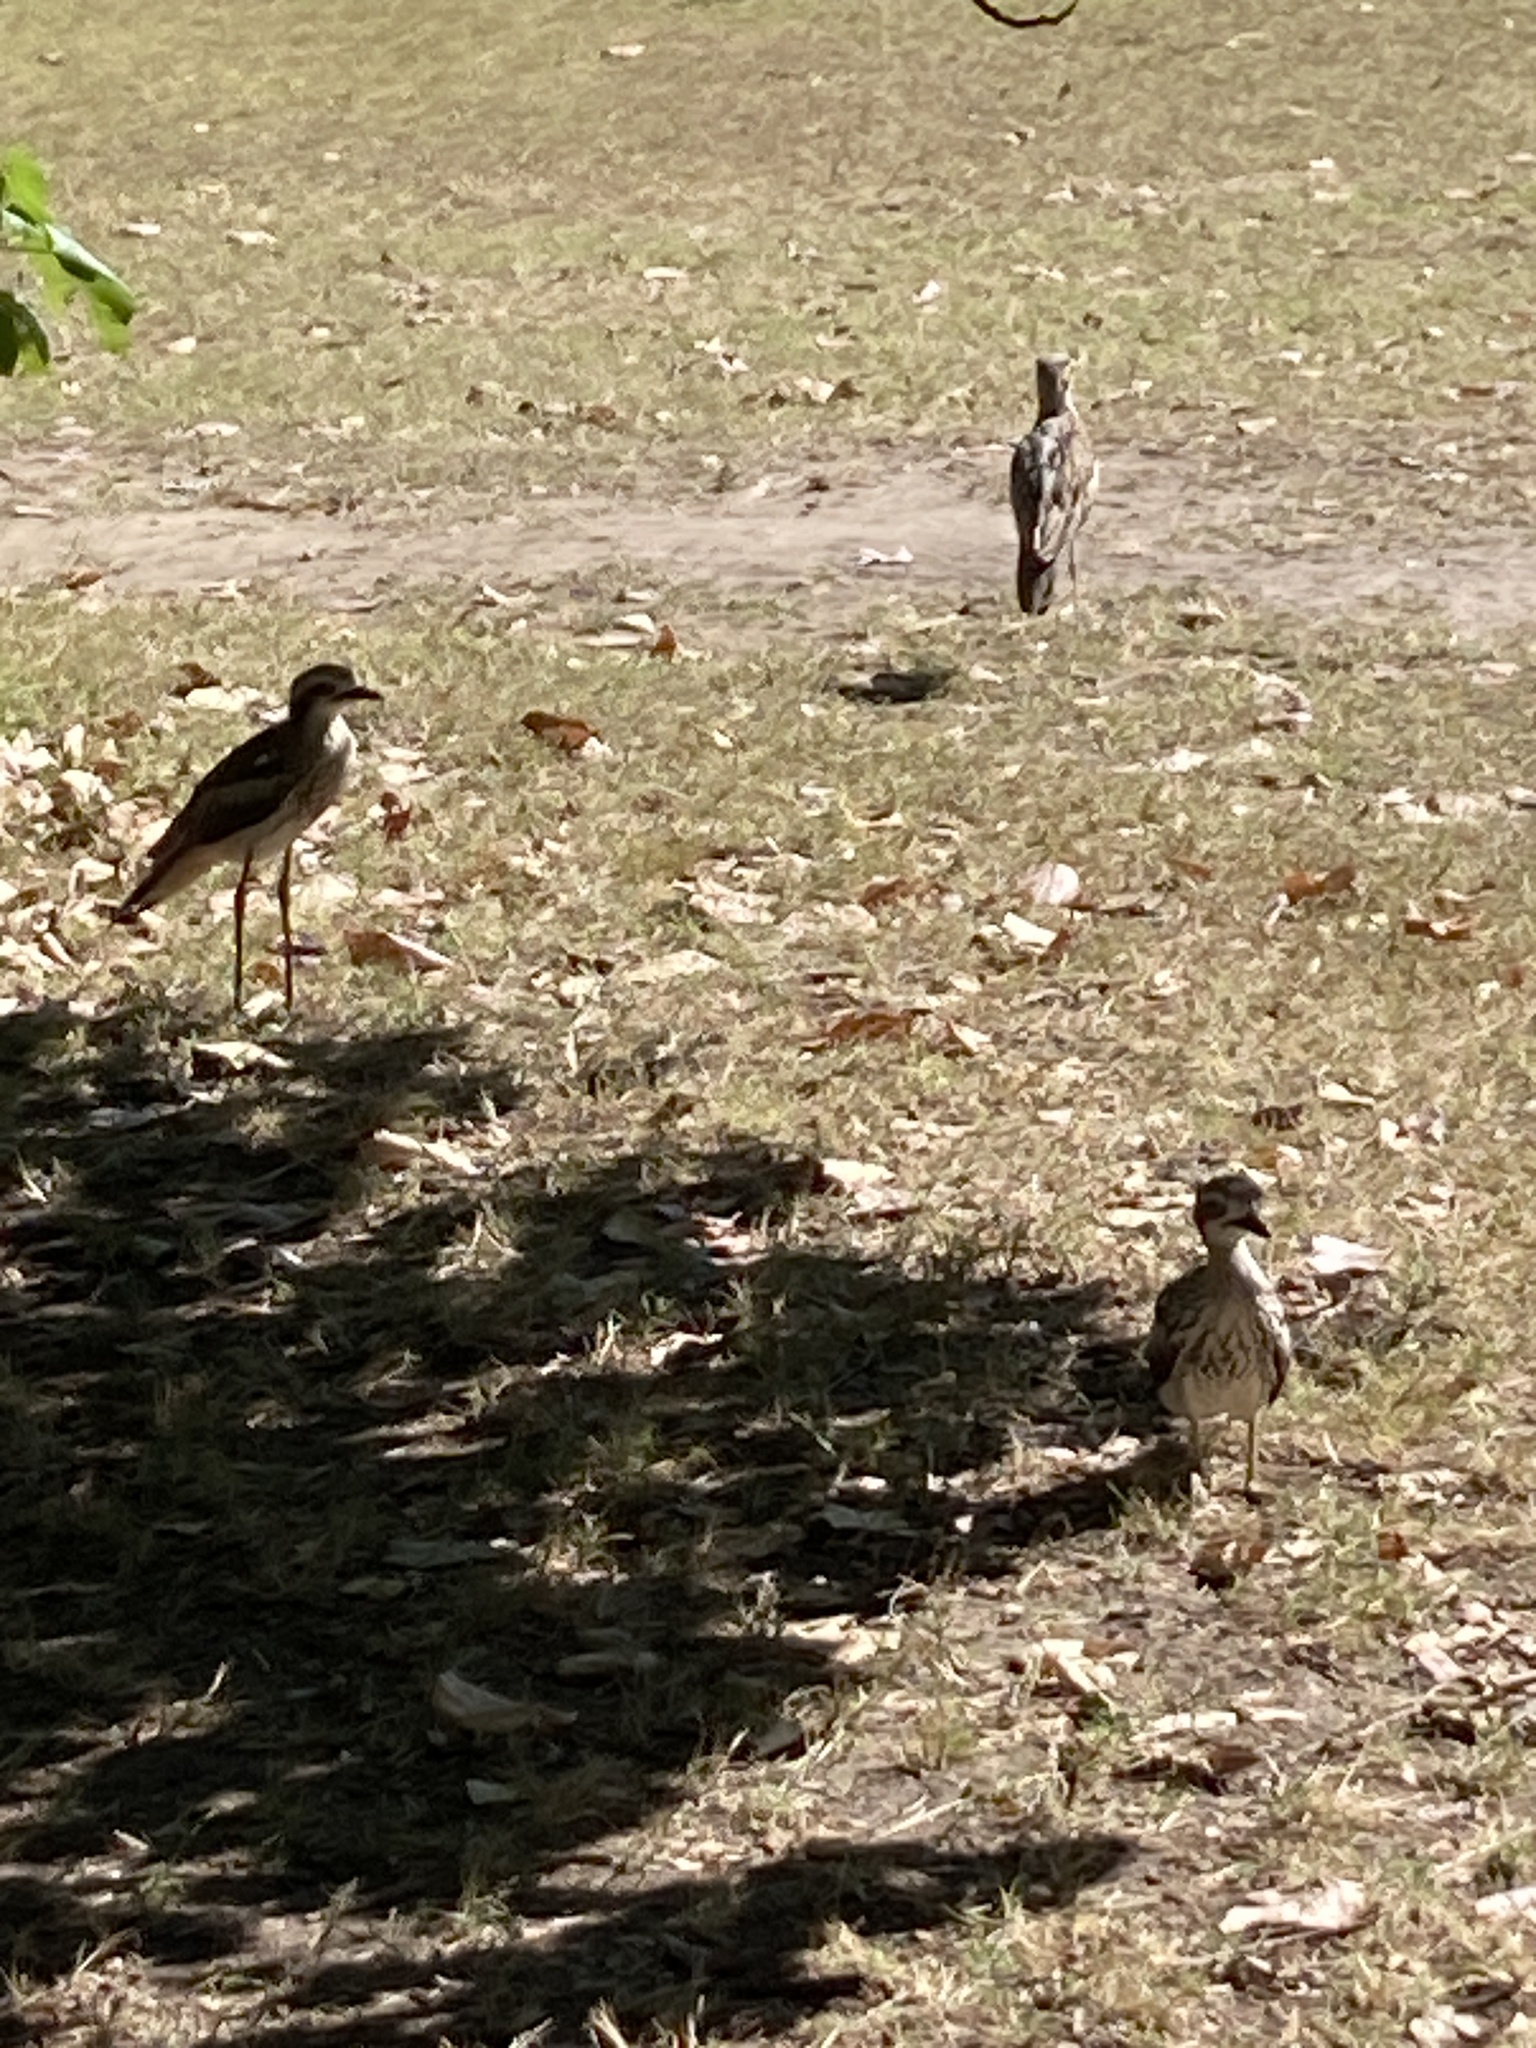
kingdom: Animalia
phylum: Chordata
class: Aves
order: Charadriiformes
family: Burhinidae
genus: Burhinus
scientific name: Burhinus grallarius
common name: Bush stone-curlew
